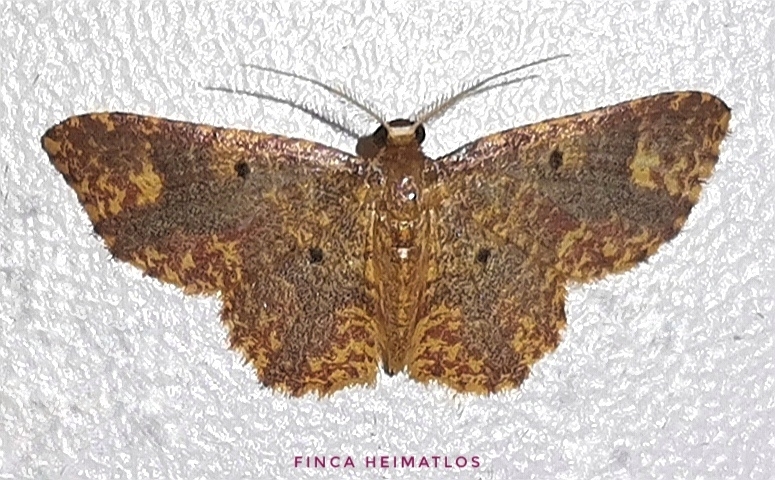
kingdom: Animalia
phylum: Arthropoda
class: Insecta
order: Lepidoptera
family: Geometridae
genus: Eois
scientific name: Eois lunifera
